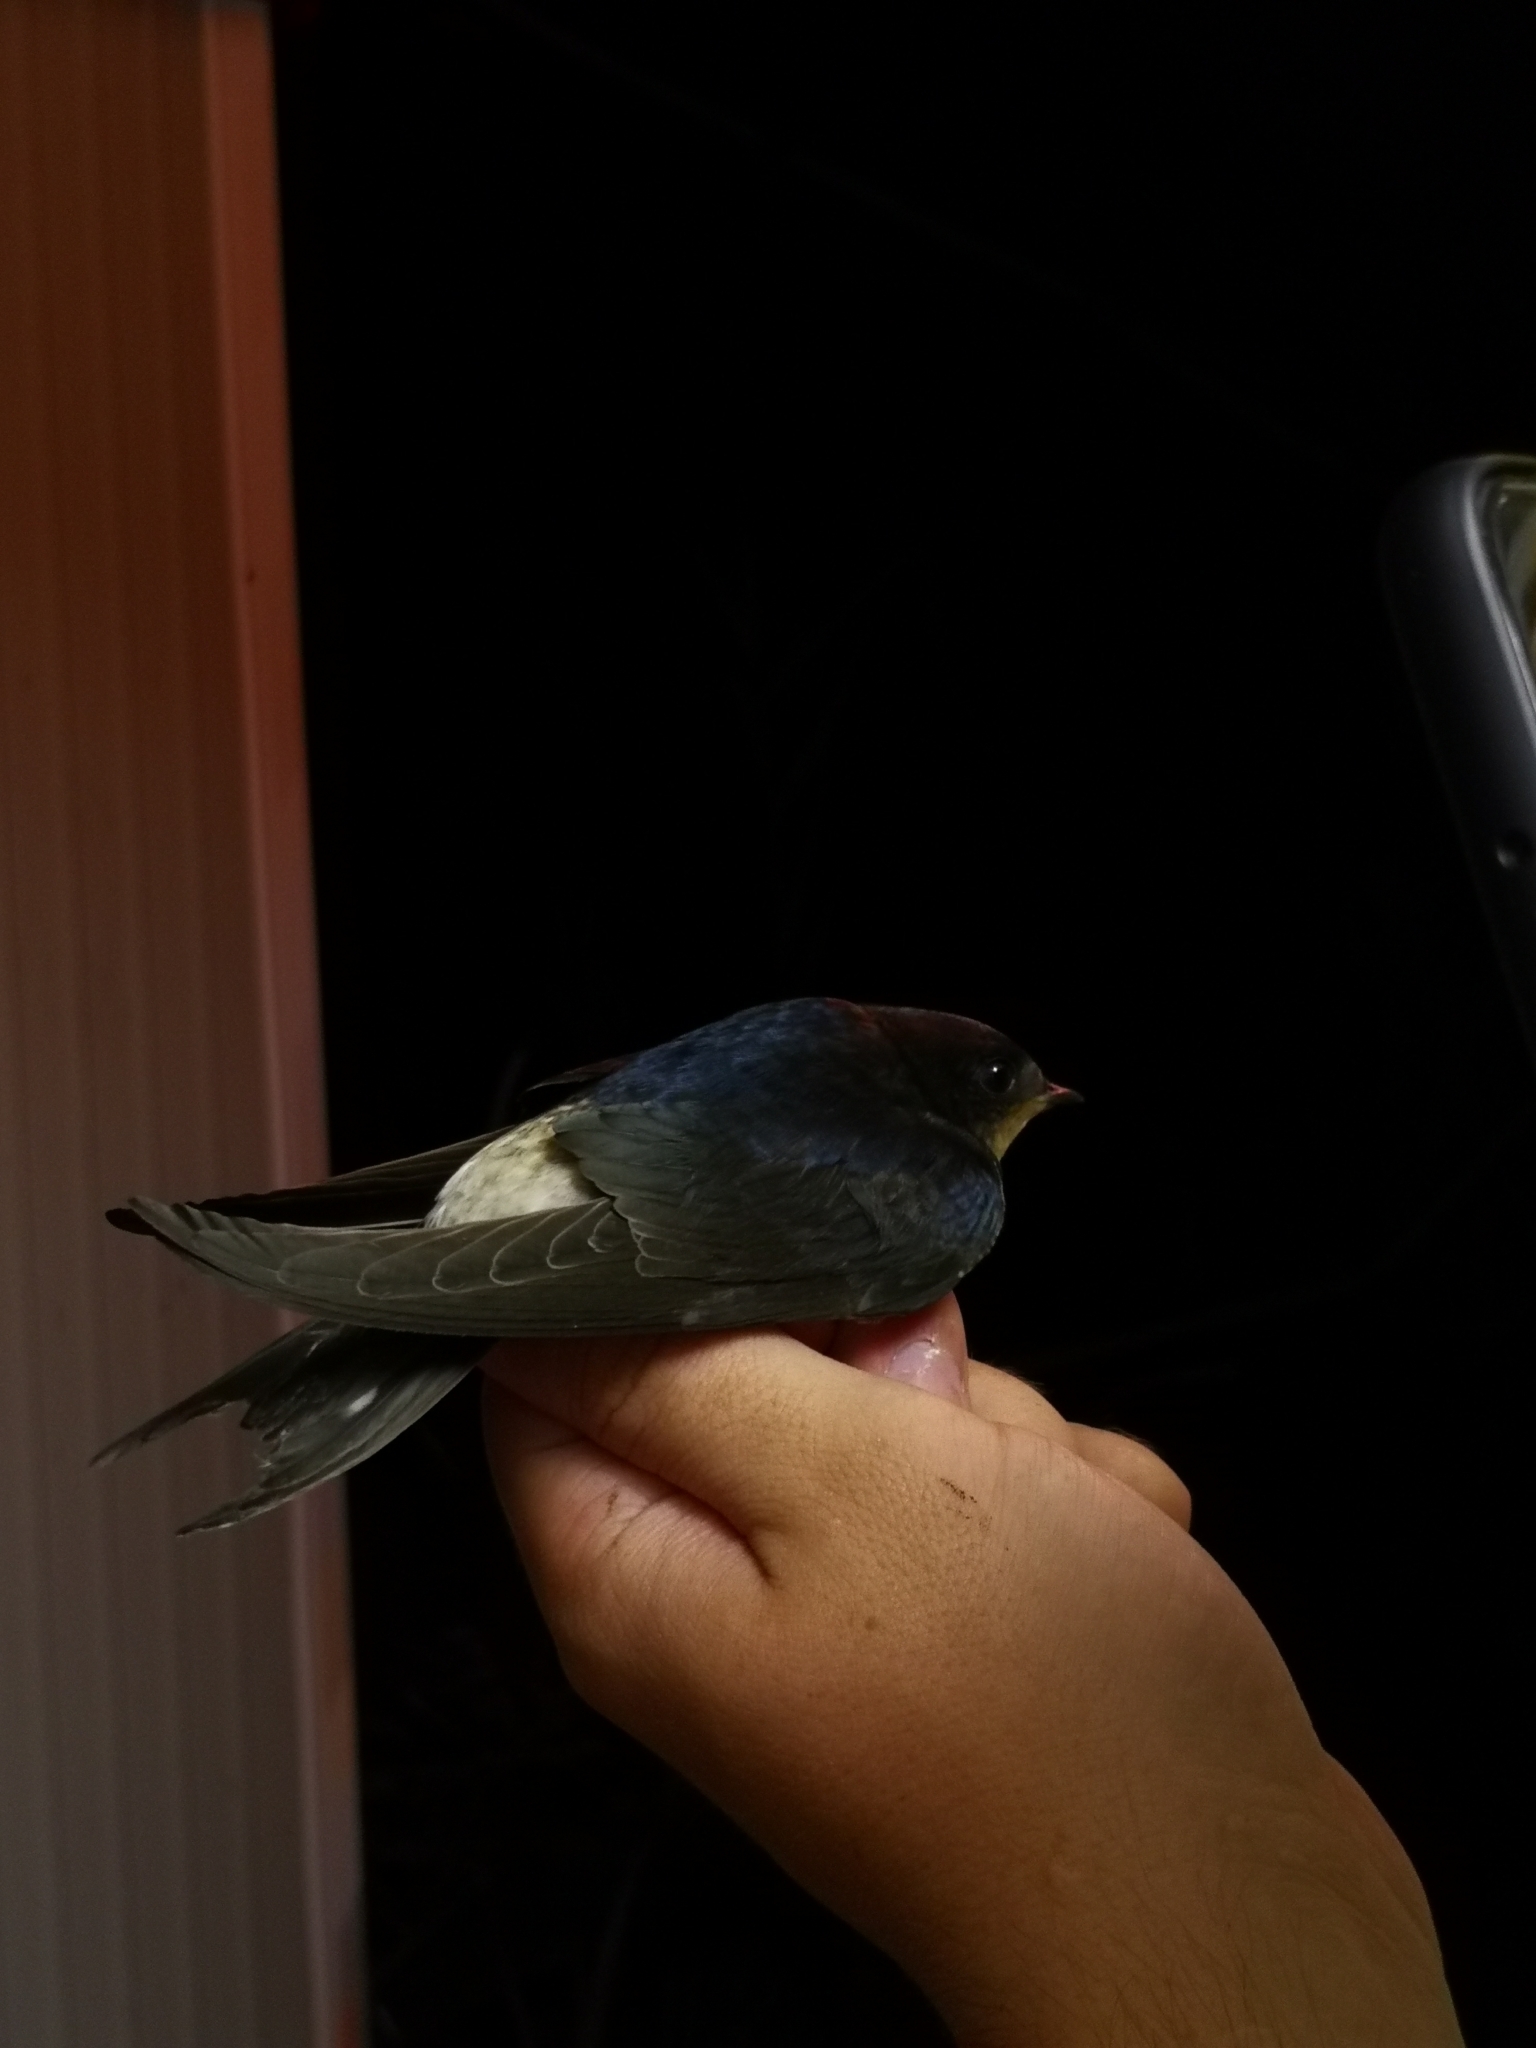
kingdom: Animalia
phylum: Chordata
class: Aves
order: Passeriformes
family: Hirundinidae
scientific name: Hirundinidae
